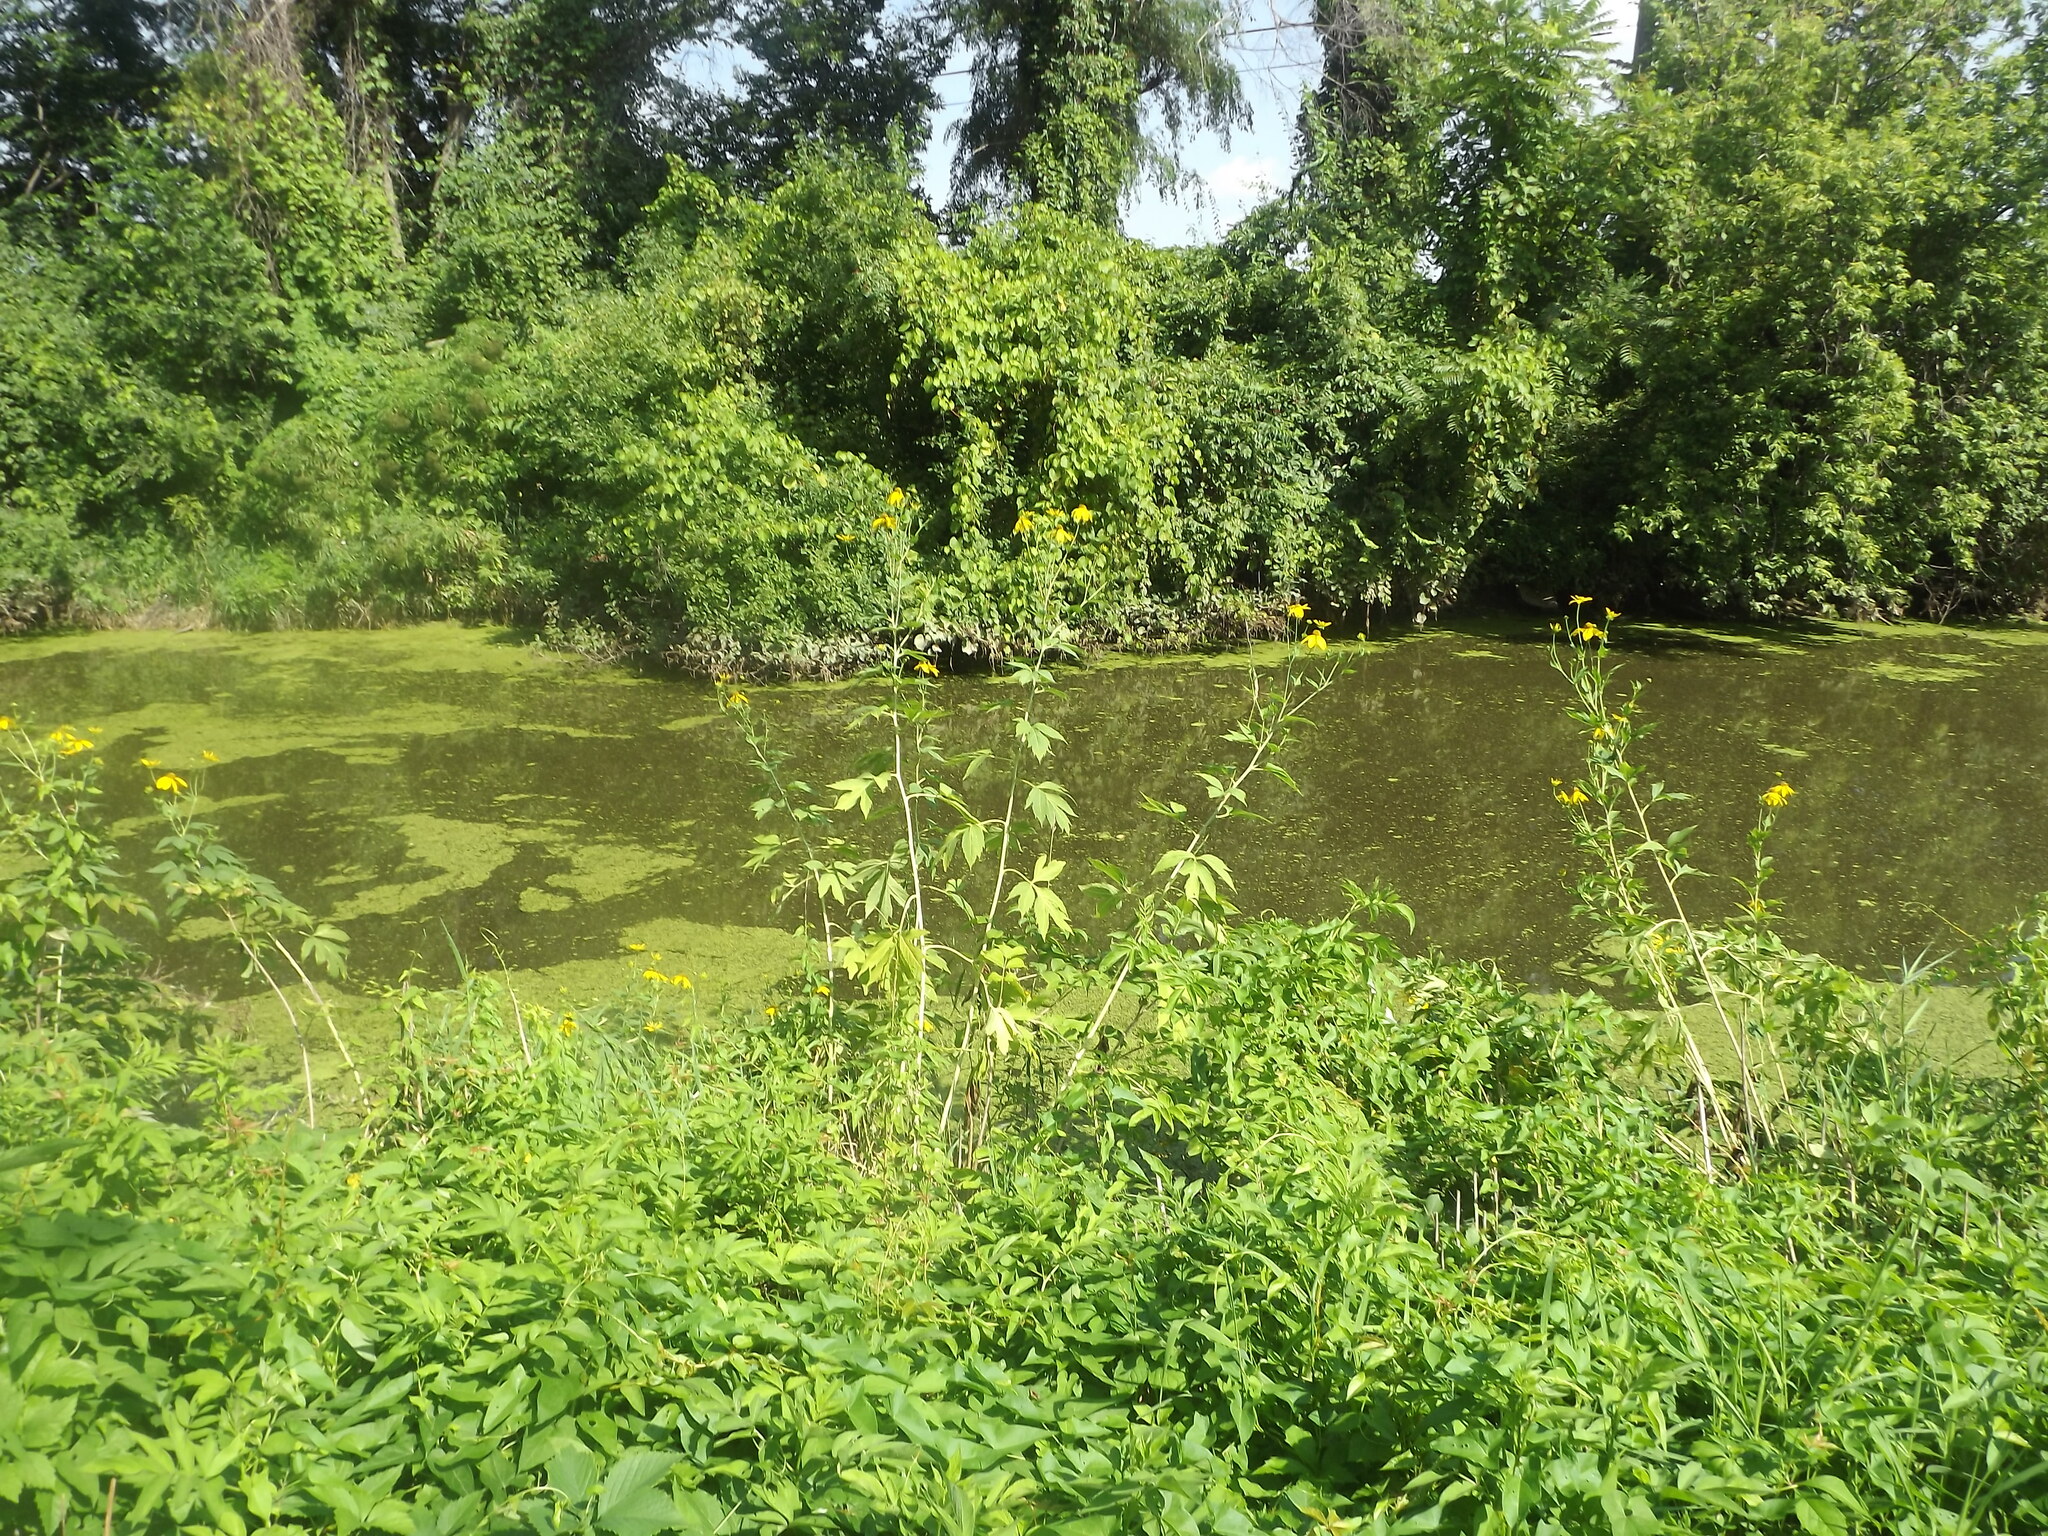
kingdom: Plantae
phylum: Tracheophyta
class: Magnoliopsida
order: Asterales
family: Asteraceae
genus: Rudbeckia
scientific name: Rudbeckia laciniata
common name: Coneflower
